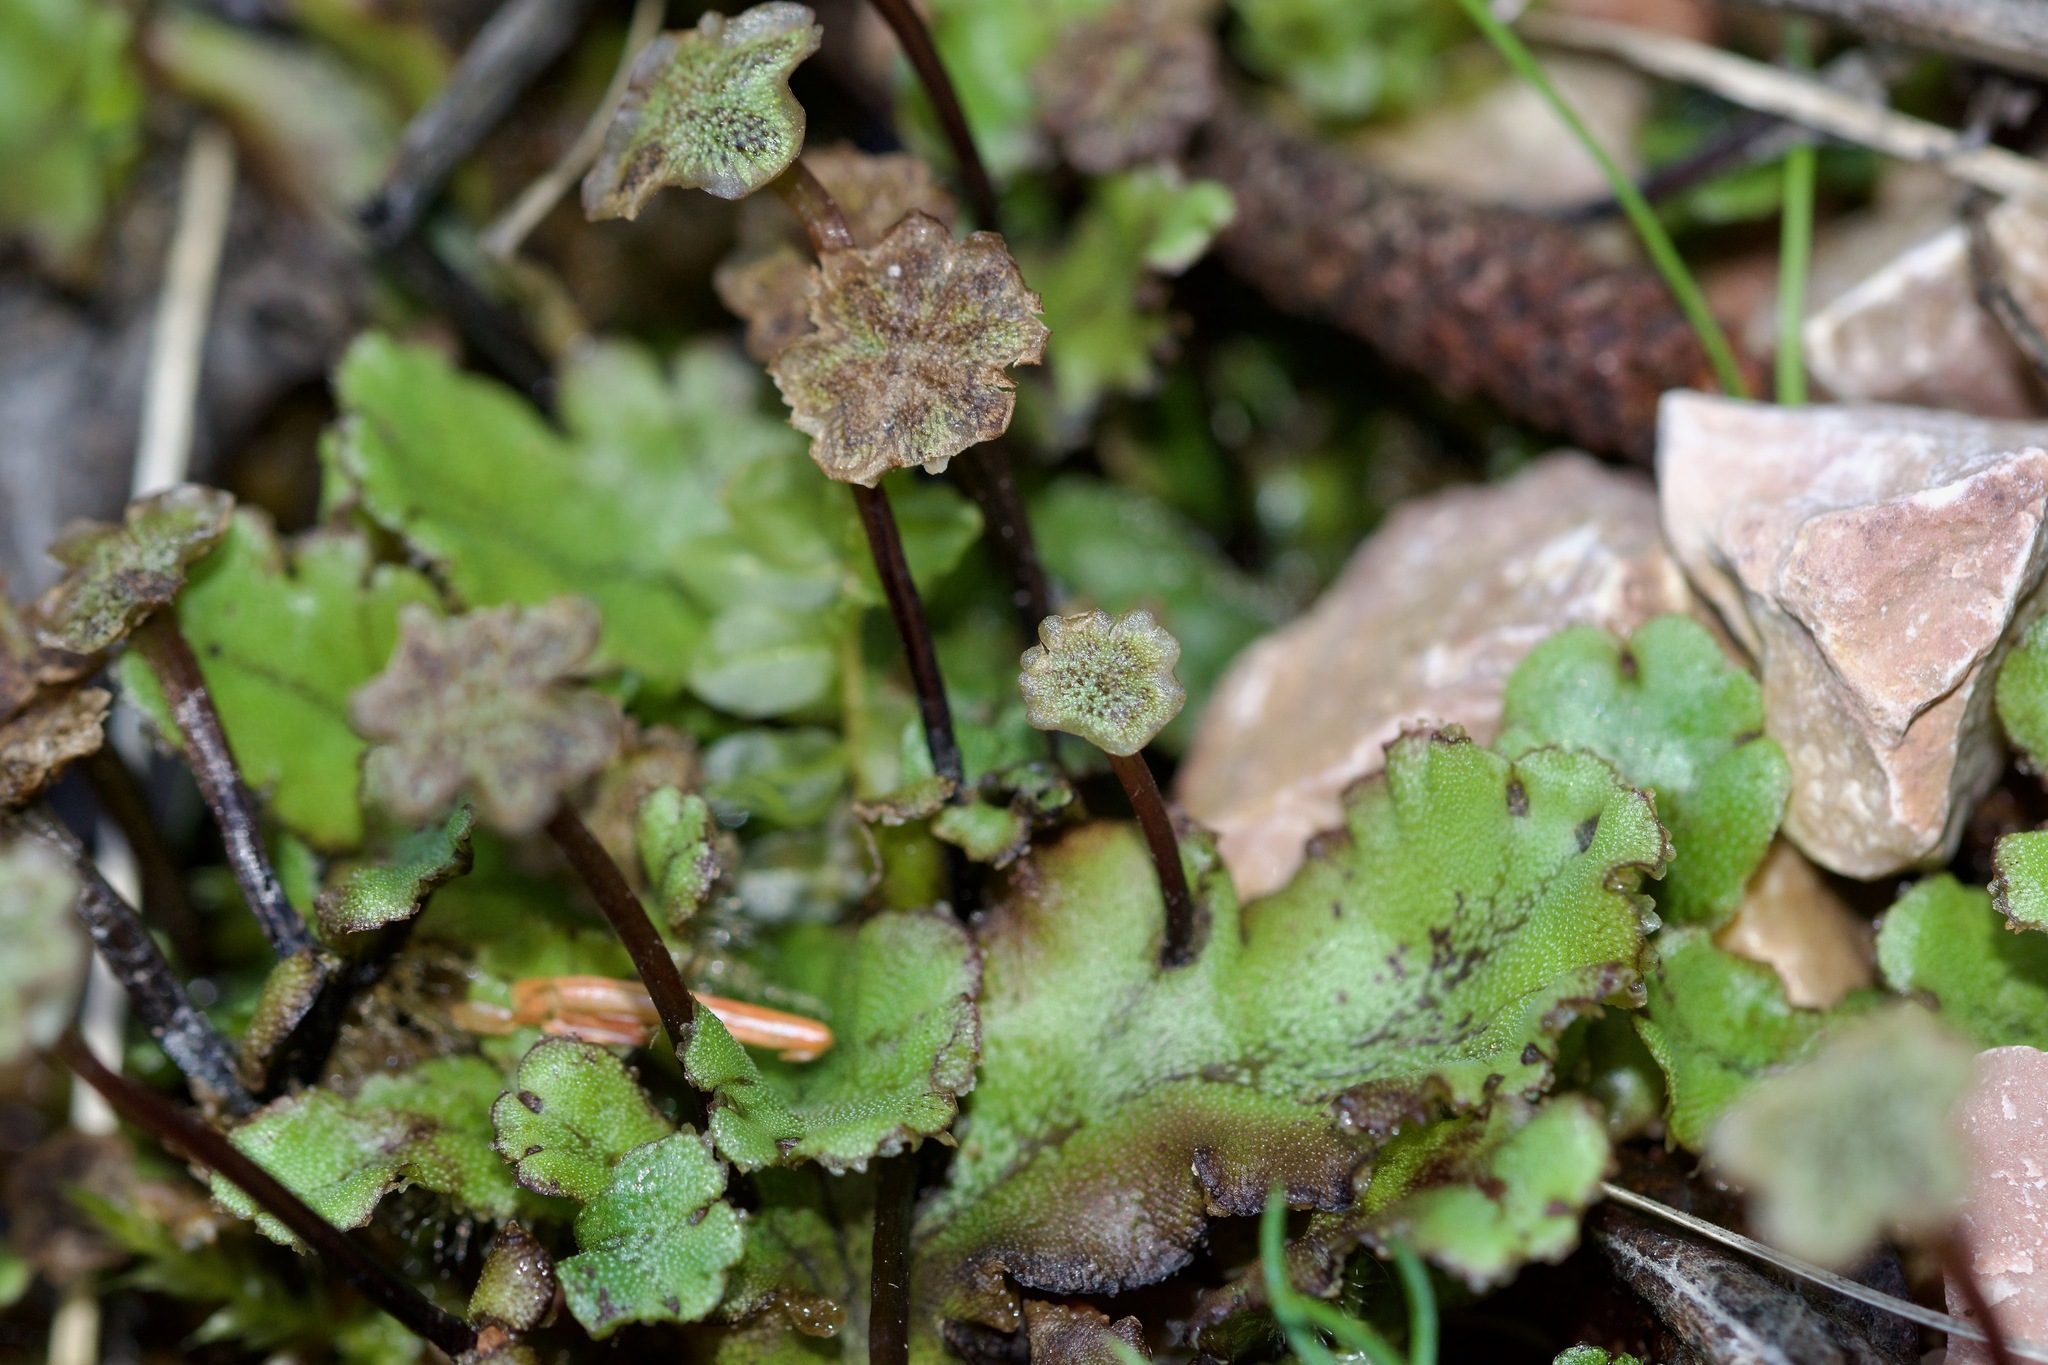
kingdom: Plantae
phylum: Marchantiophyta
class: Marchantiopsida
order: Marchantiales
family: Marchantiaceae
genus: Marchantia
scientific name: Marchantia polymorpha
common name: Common liverwort
